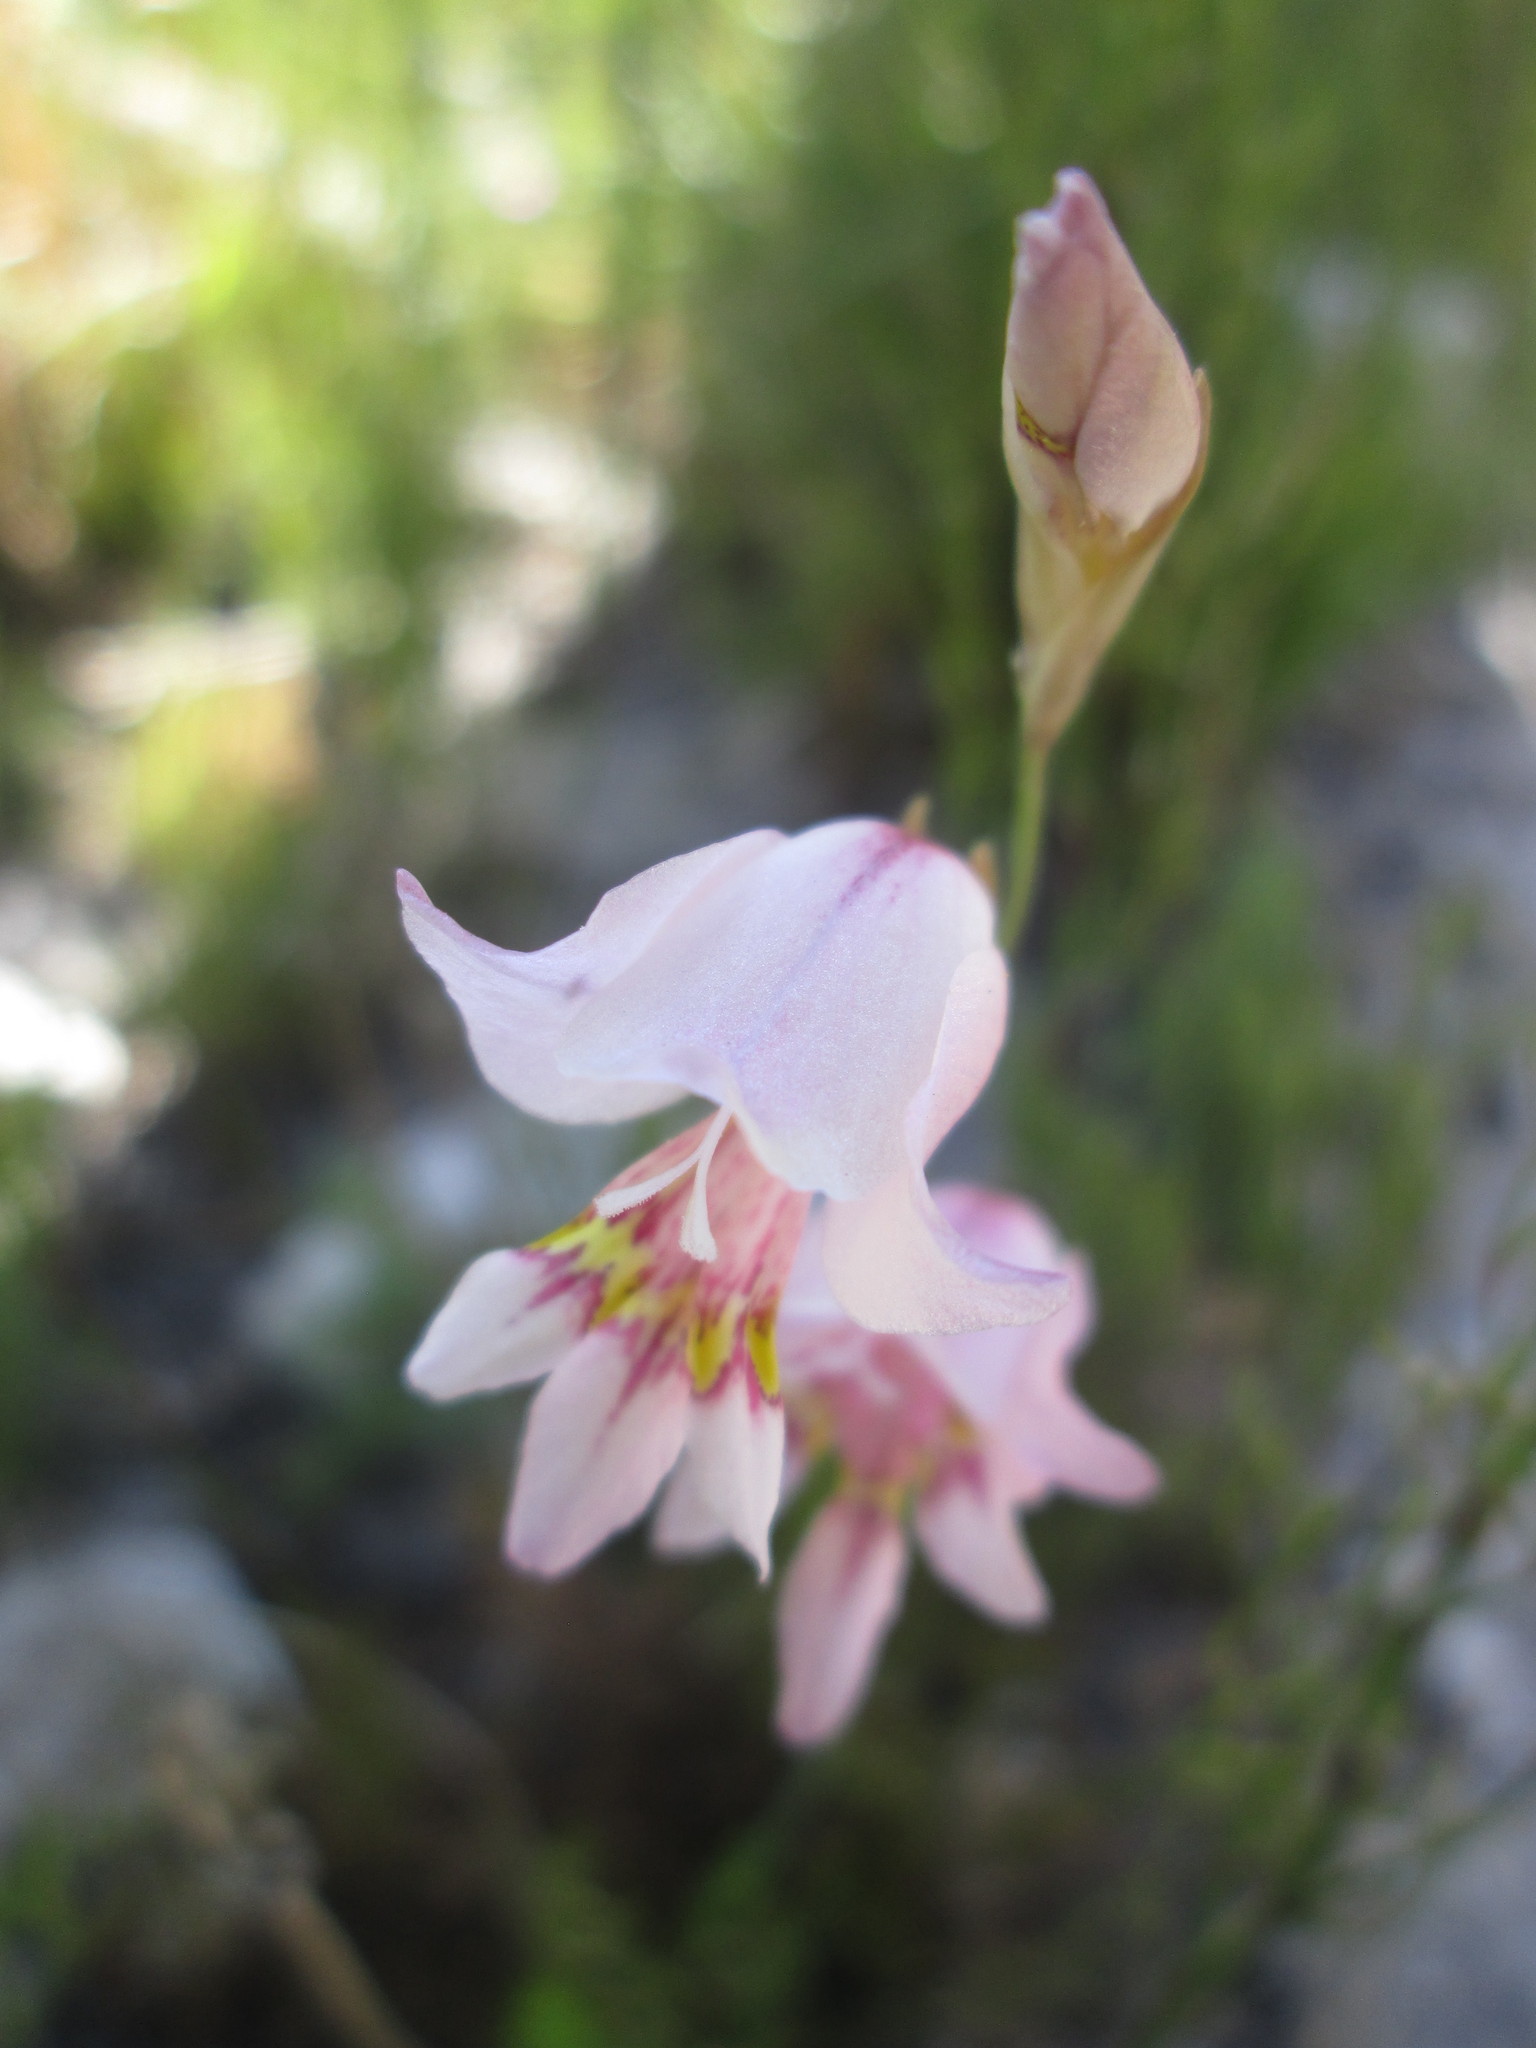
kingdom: Plantae
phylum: Tracheophyta
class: Liliopsida
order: Asparagales
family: Iridaceae
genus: Gladiolus
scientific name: Gladiolus martleyi
